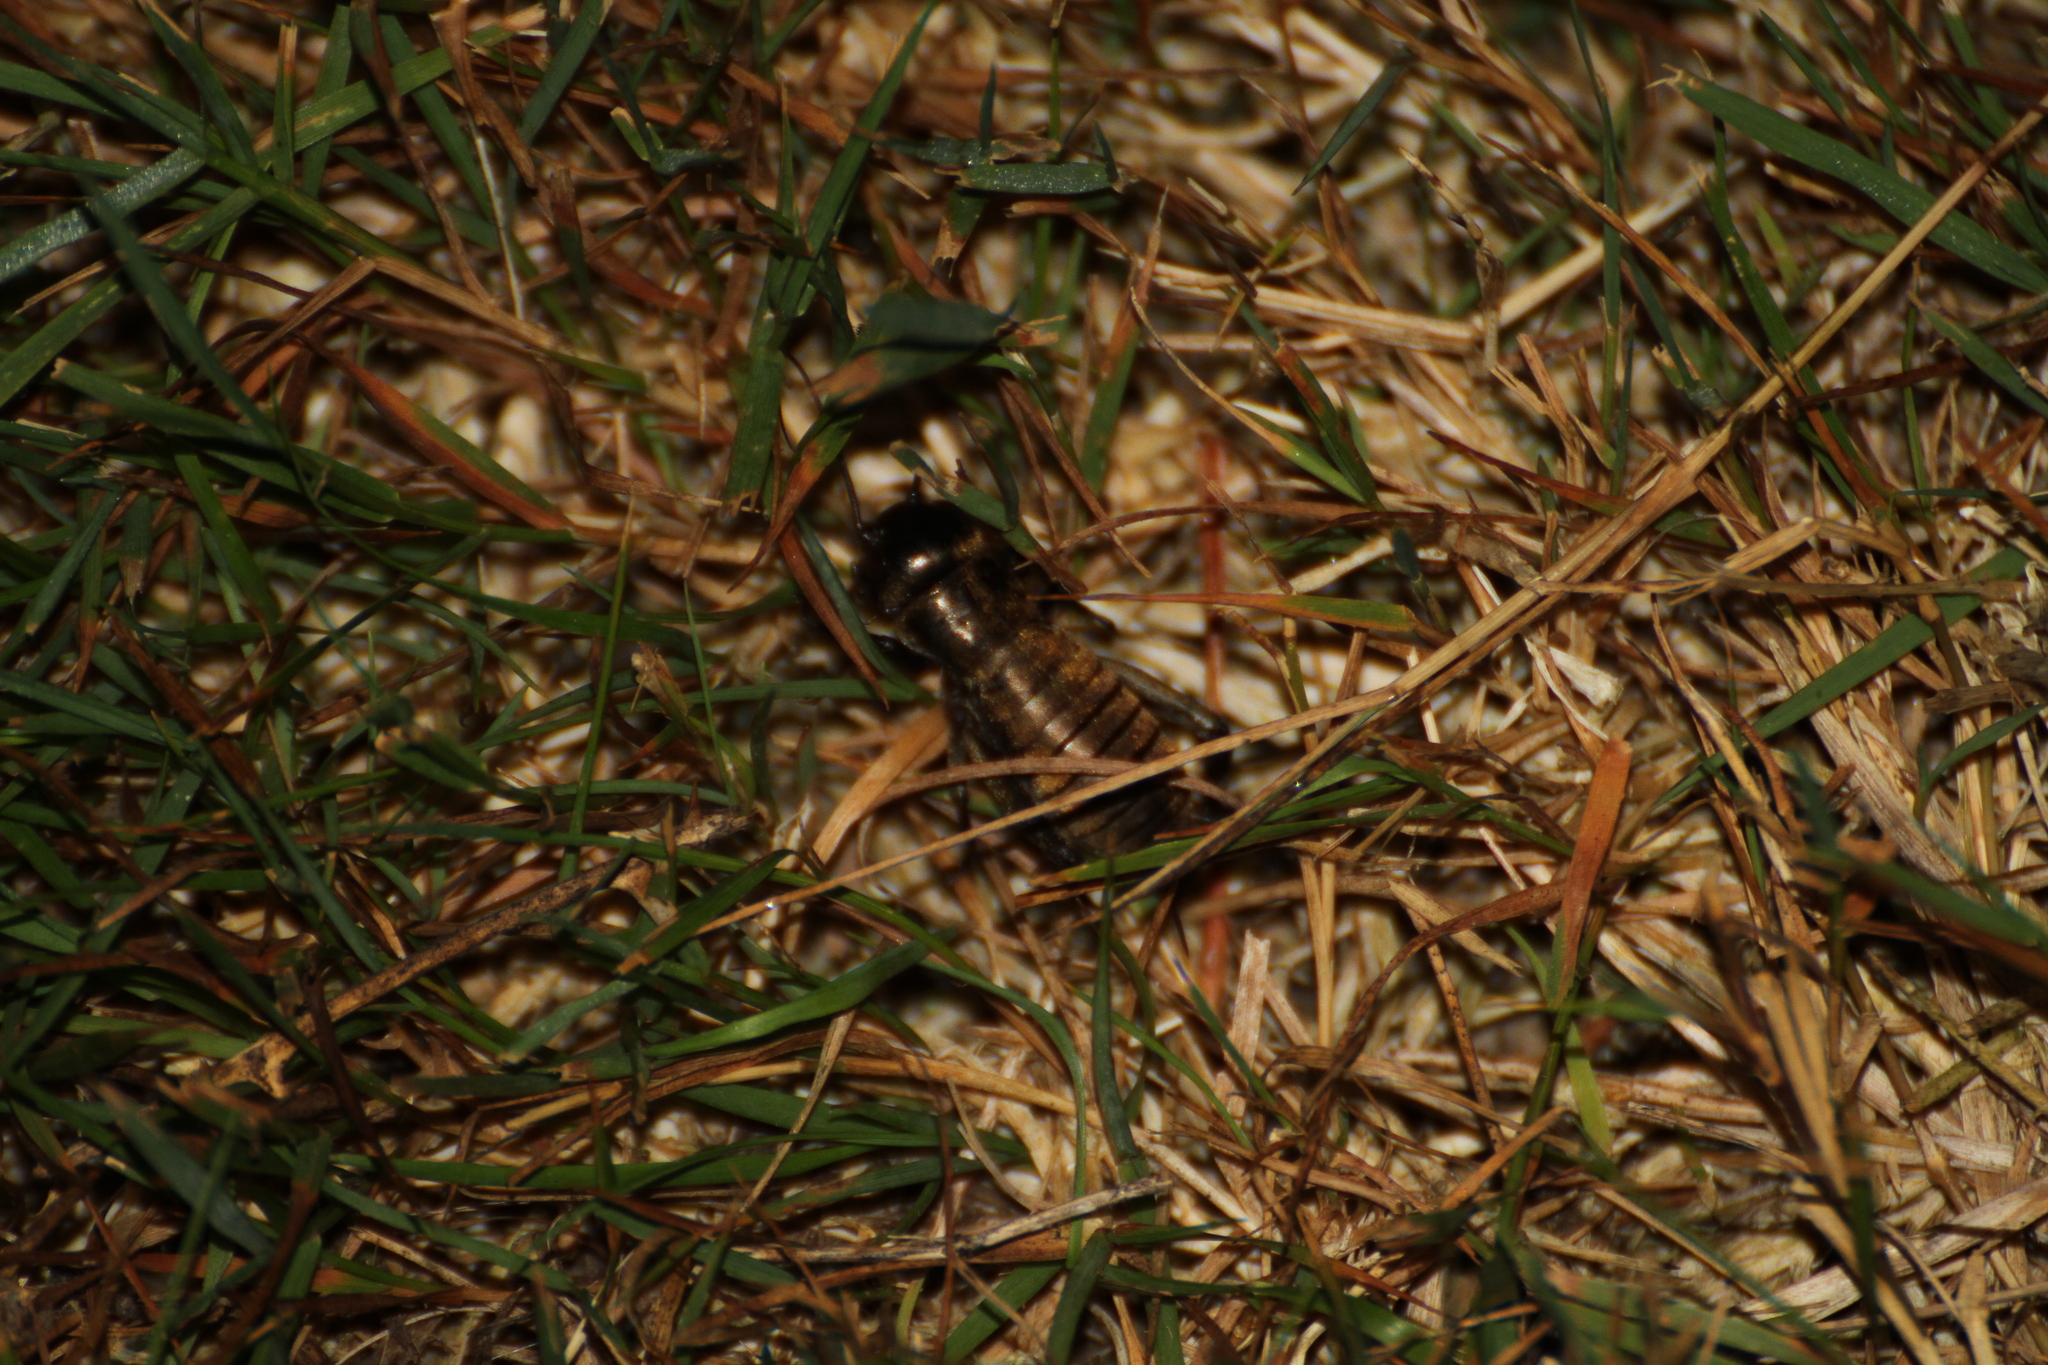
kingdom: Animalia
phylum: Arthropoda
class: Insecta
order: Orthoptera
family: Gryllidae
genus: Gryllus
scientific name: Gryllus campestris
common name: Field cricket
